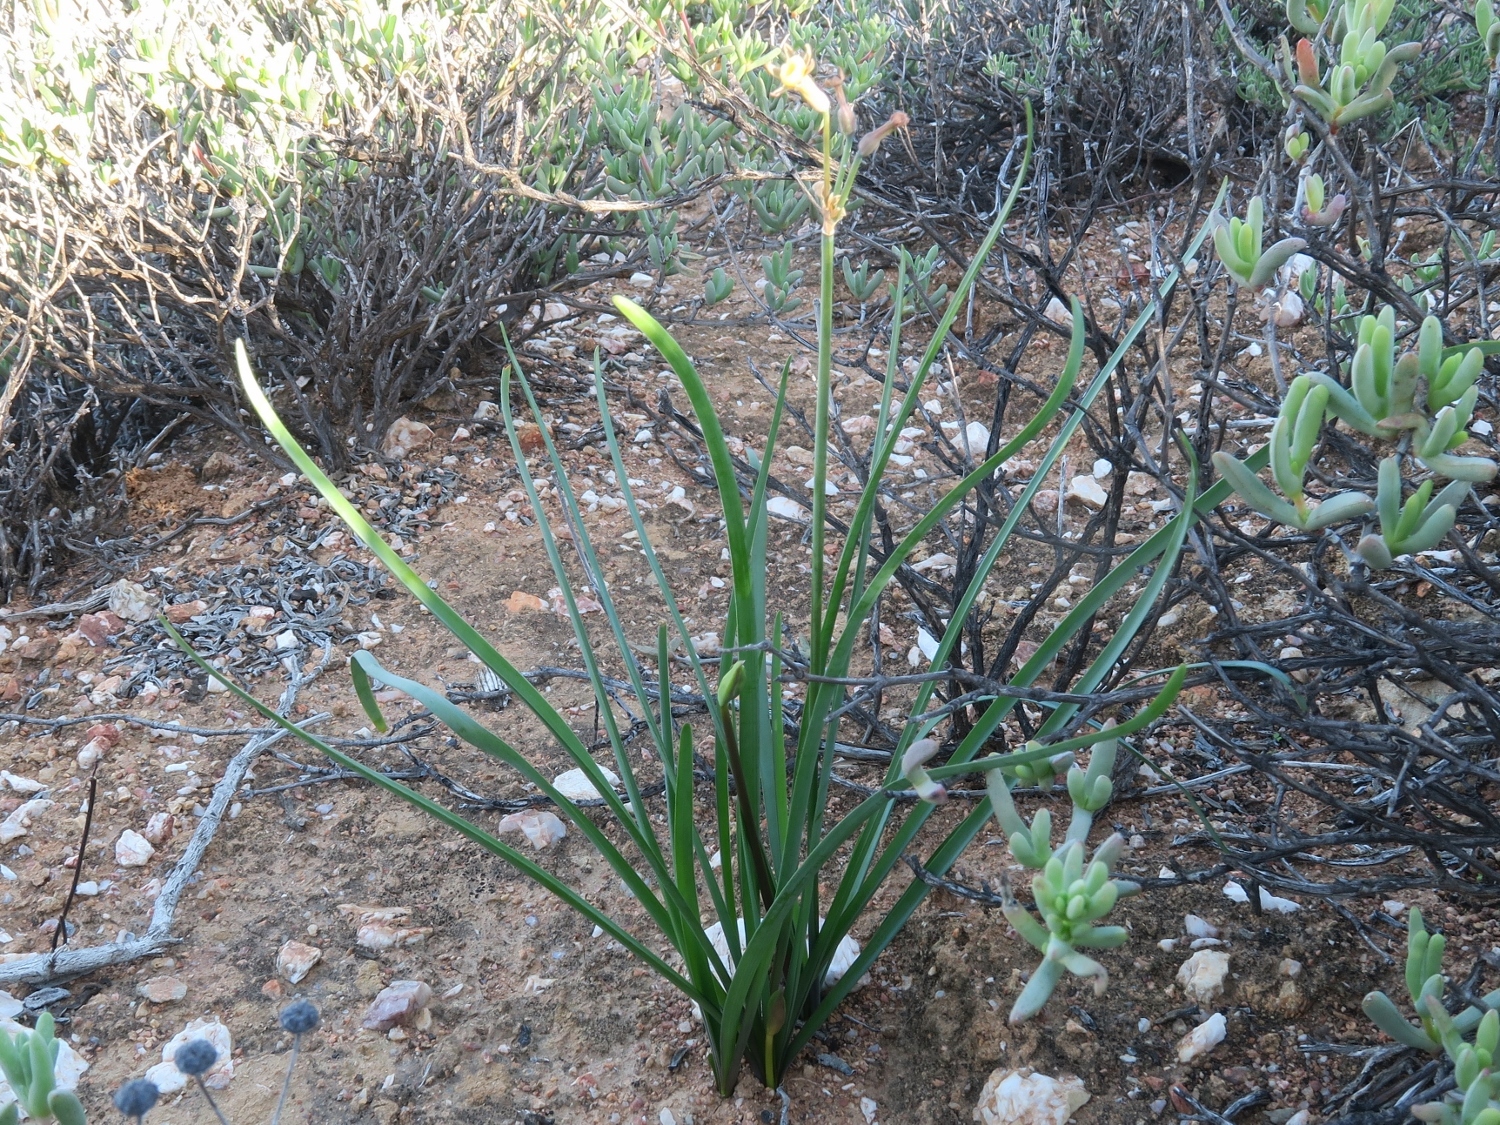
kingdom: Plantae
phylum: Tracheophyta
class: Liliopsida
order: Asparagales
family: Amaryllidaceae
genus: Tulbaghia
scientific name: Tulbaghia dregeana
